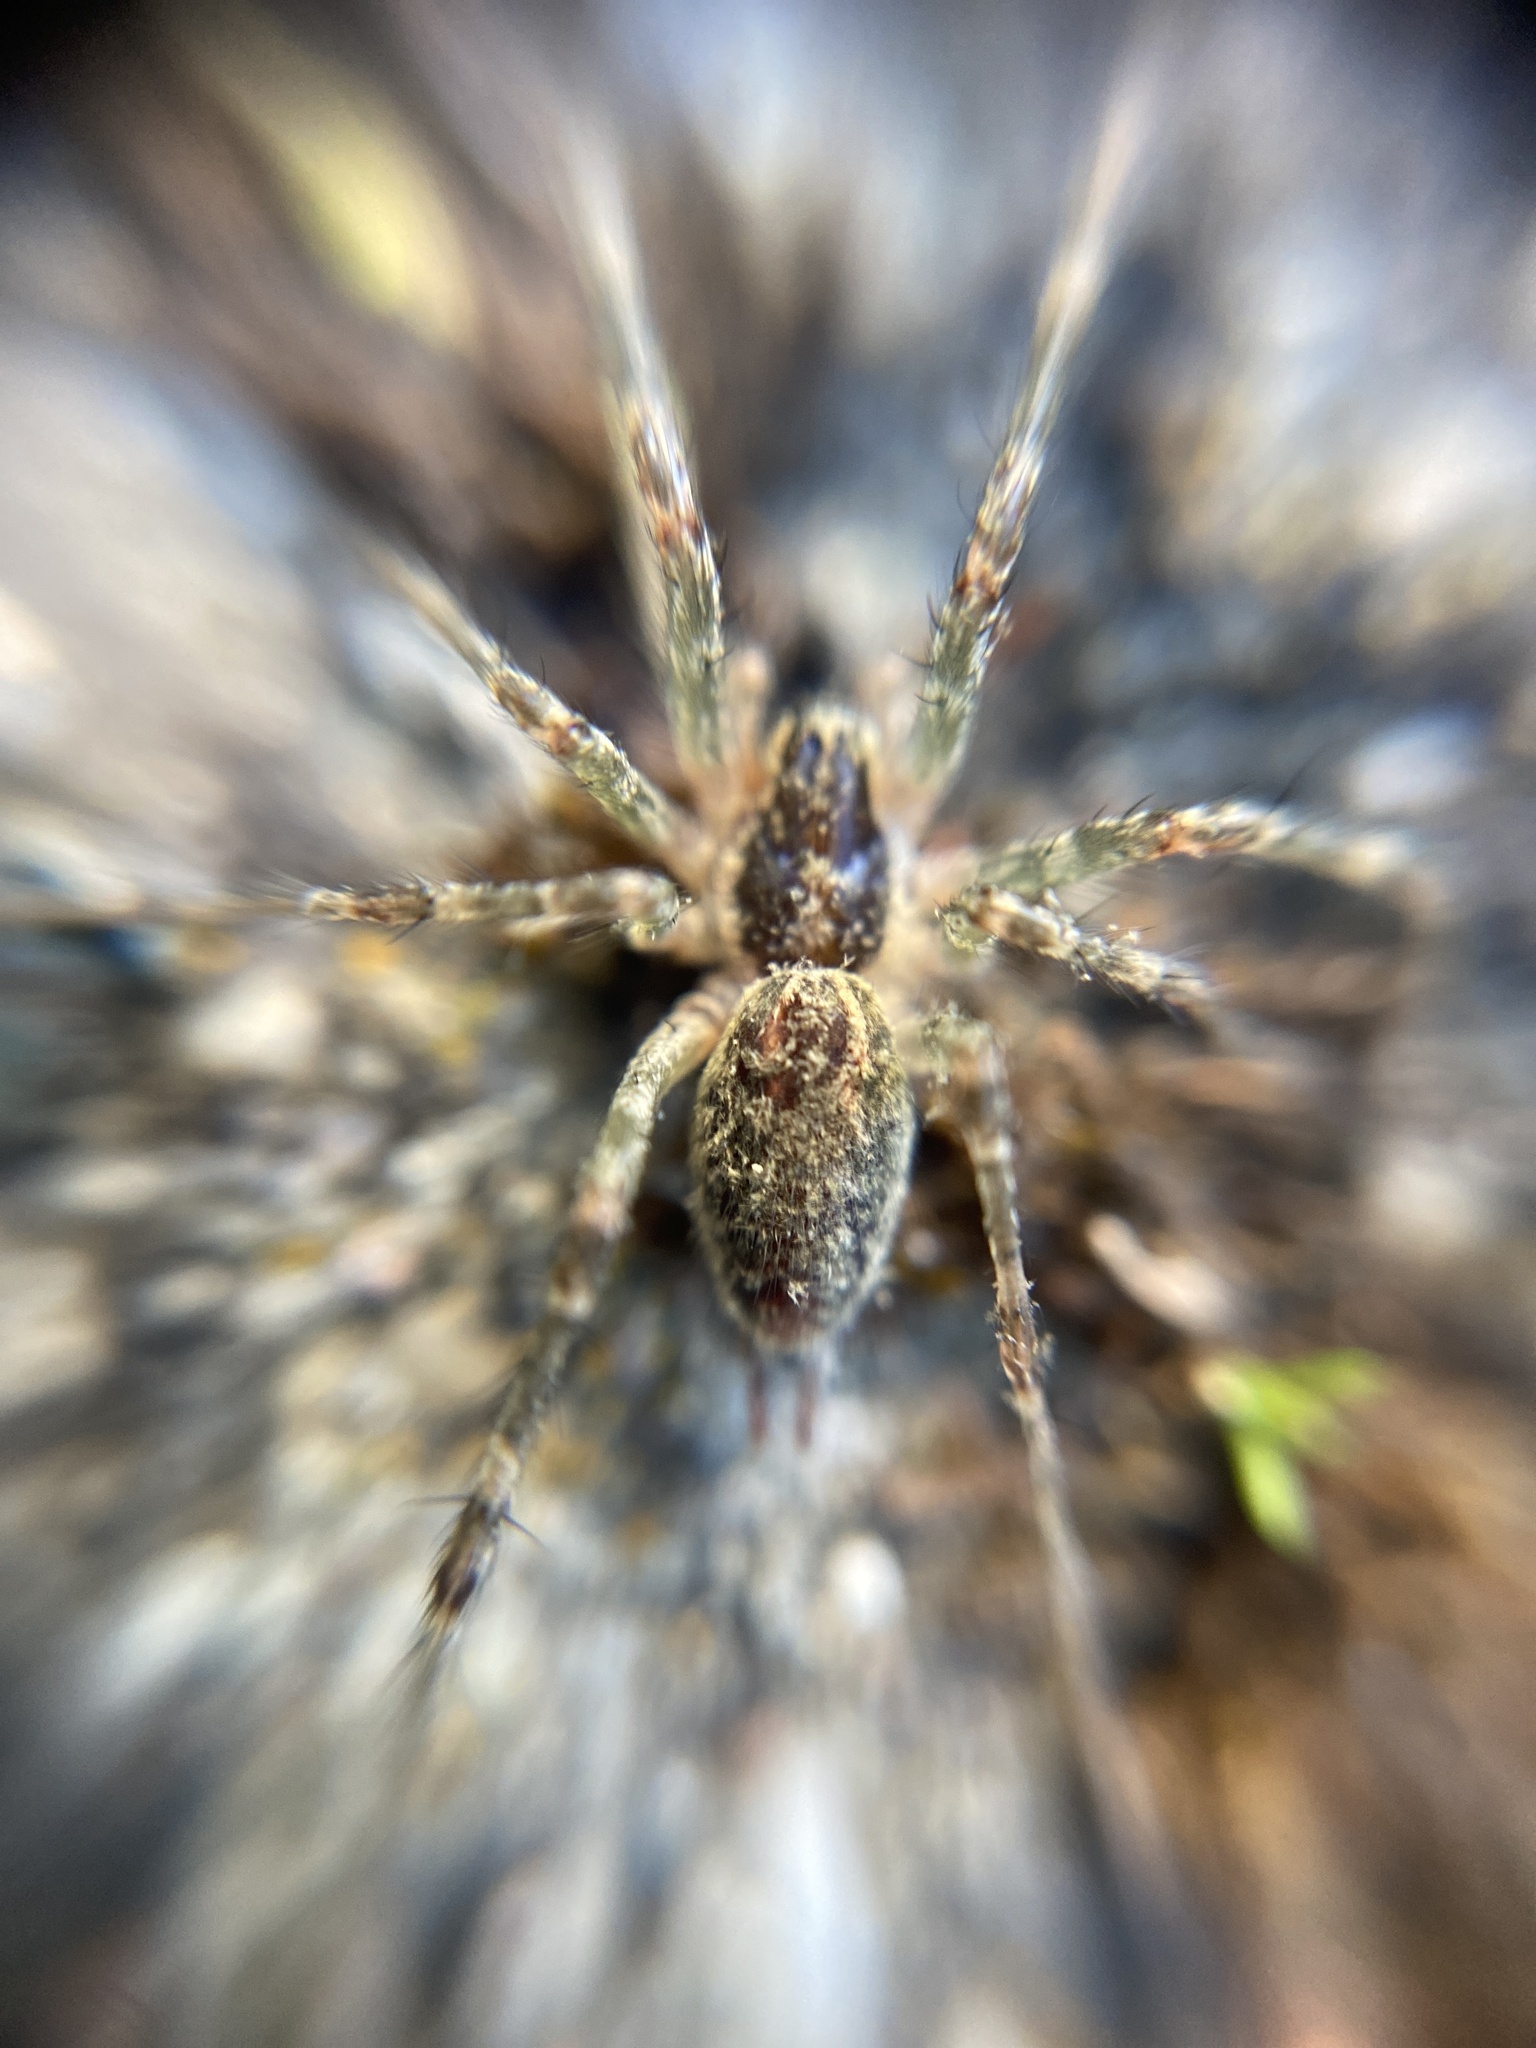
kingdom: Animalia
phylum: Arthropoda
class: Arachnida
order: Araneae
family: Agelenidae
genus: Allagelena
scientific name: Allagelena gracilens
